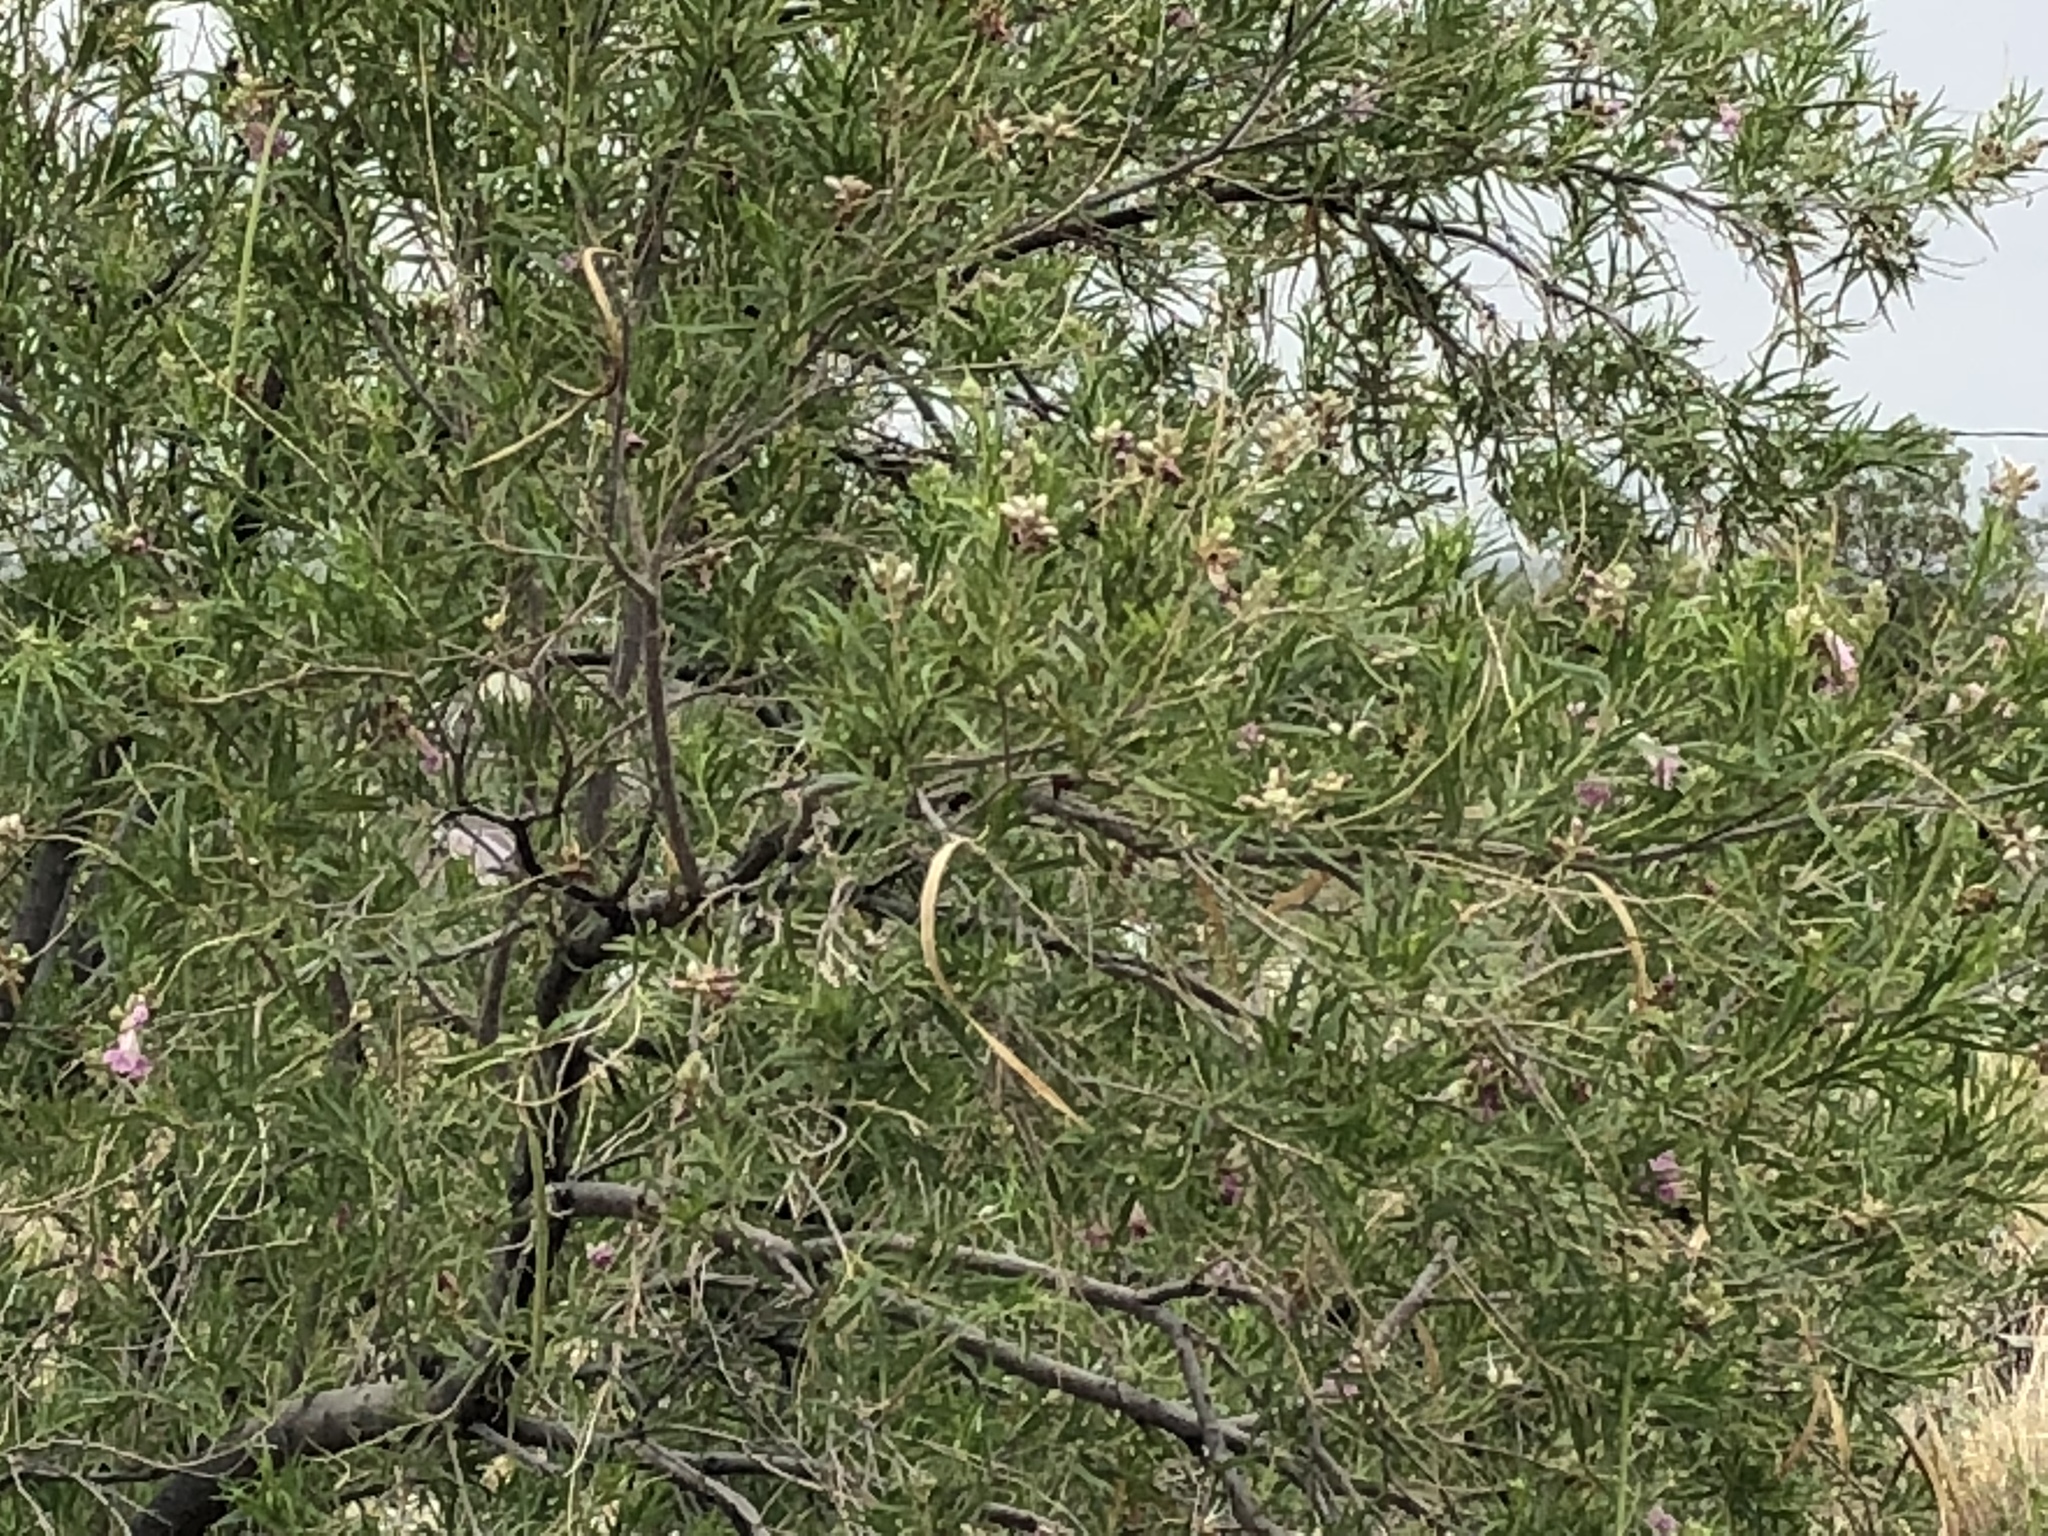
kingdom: Plantae
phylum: Tracheophyta
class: Magnoliopsida
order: Lamiales
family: Bignoniaceae
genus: Chilopsis
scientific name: Chilopsis linearis
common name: Desert-willow
